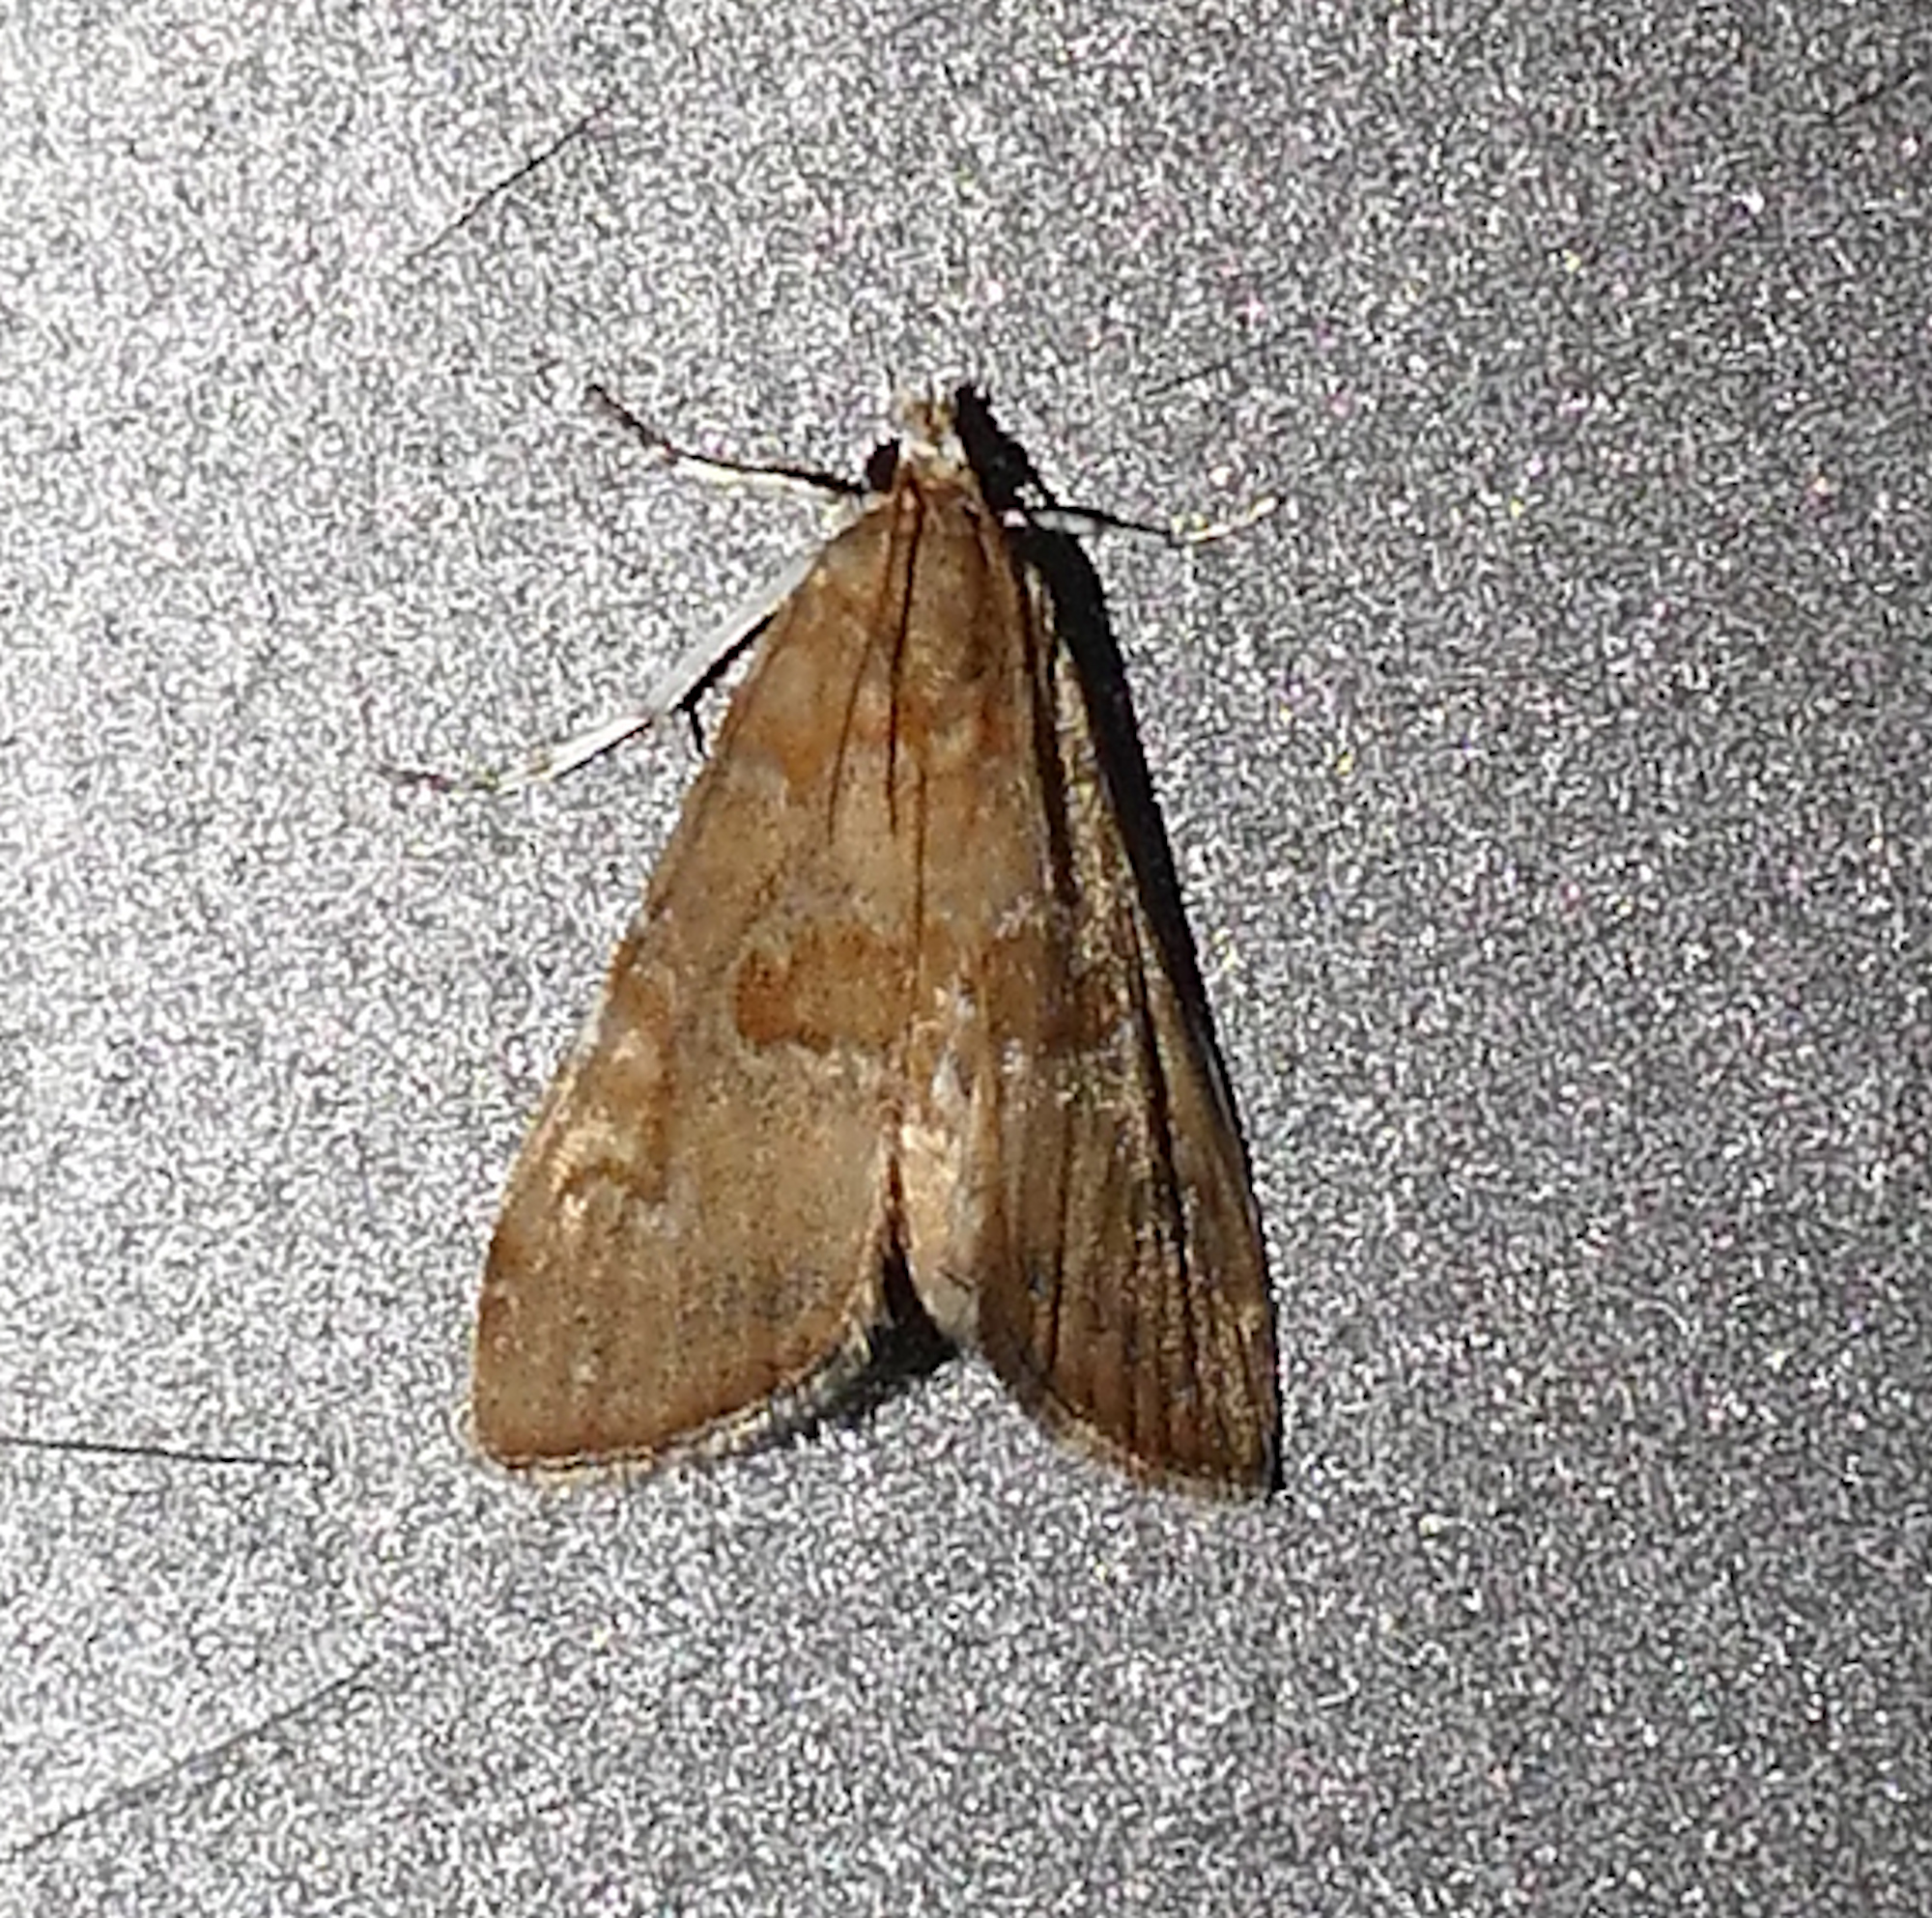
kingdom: Animalia
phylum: Arthropoda
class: Insecta
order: Lepidoptera
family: Crambidae
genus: Elophila
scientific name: Elophila gyralis
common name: Waterlily borer moth
